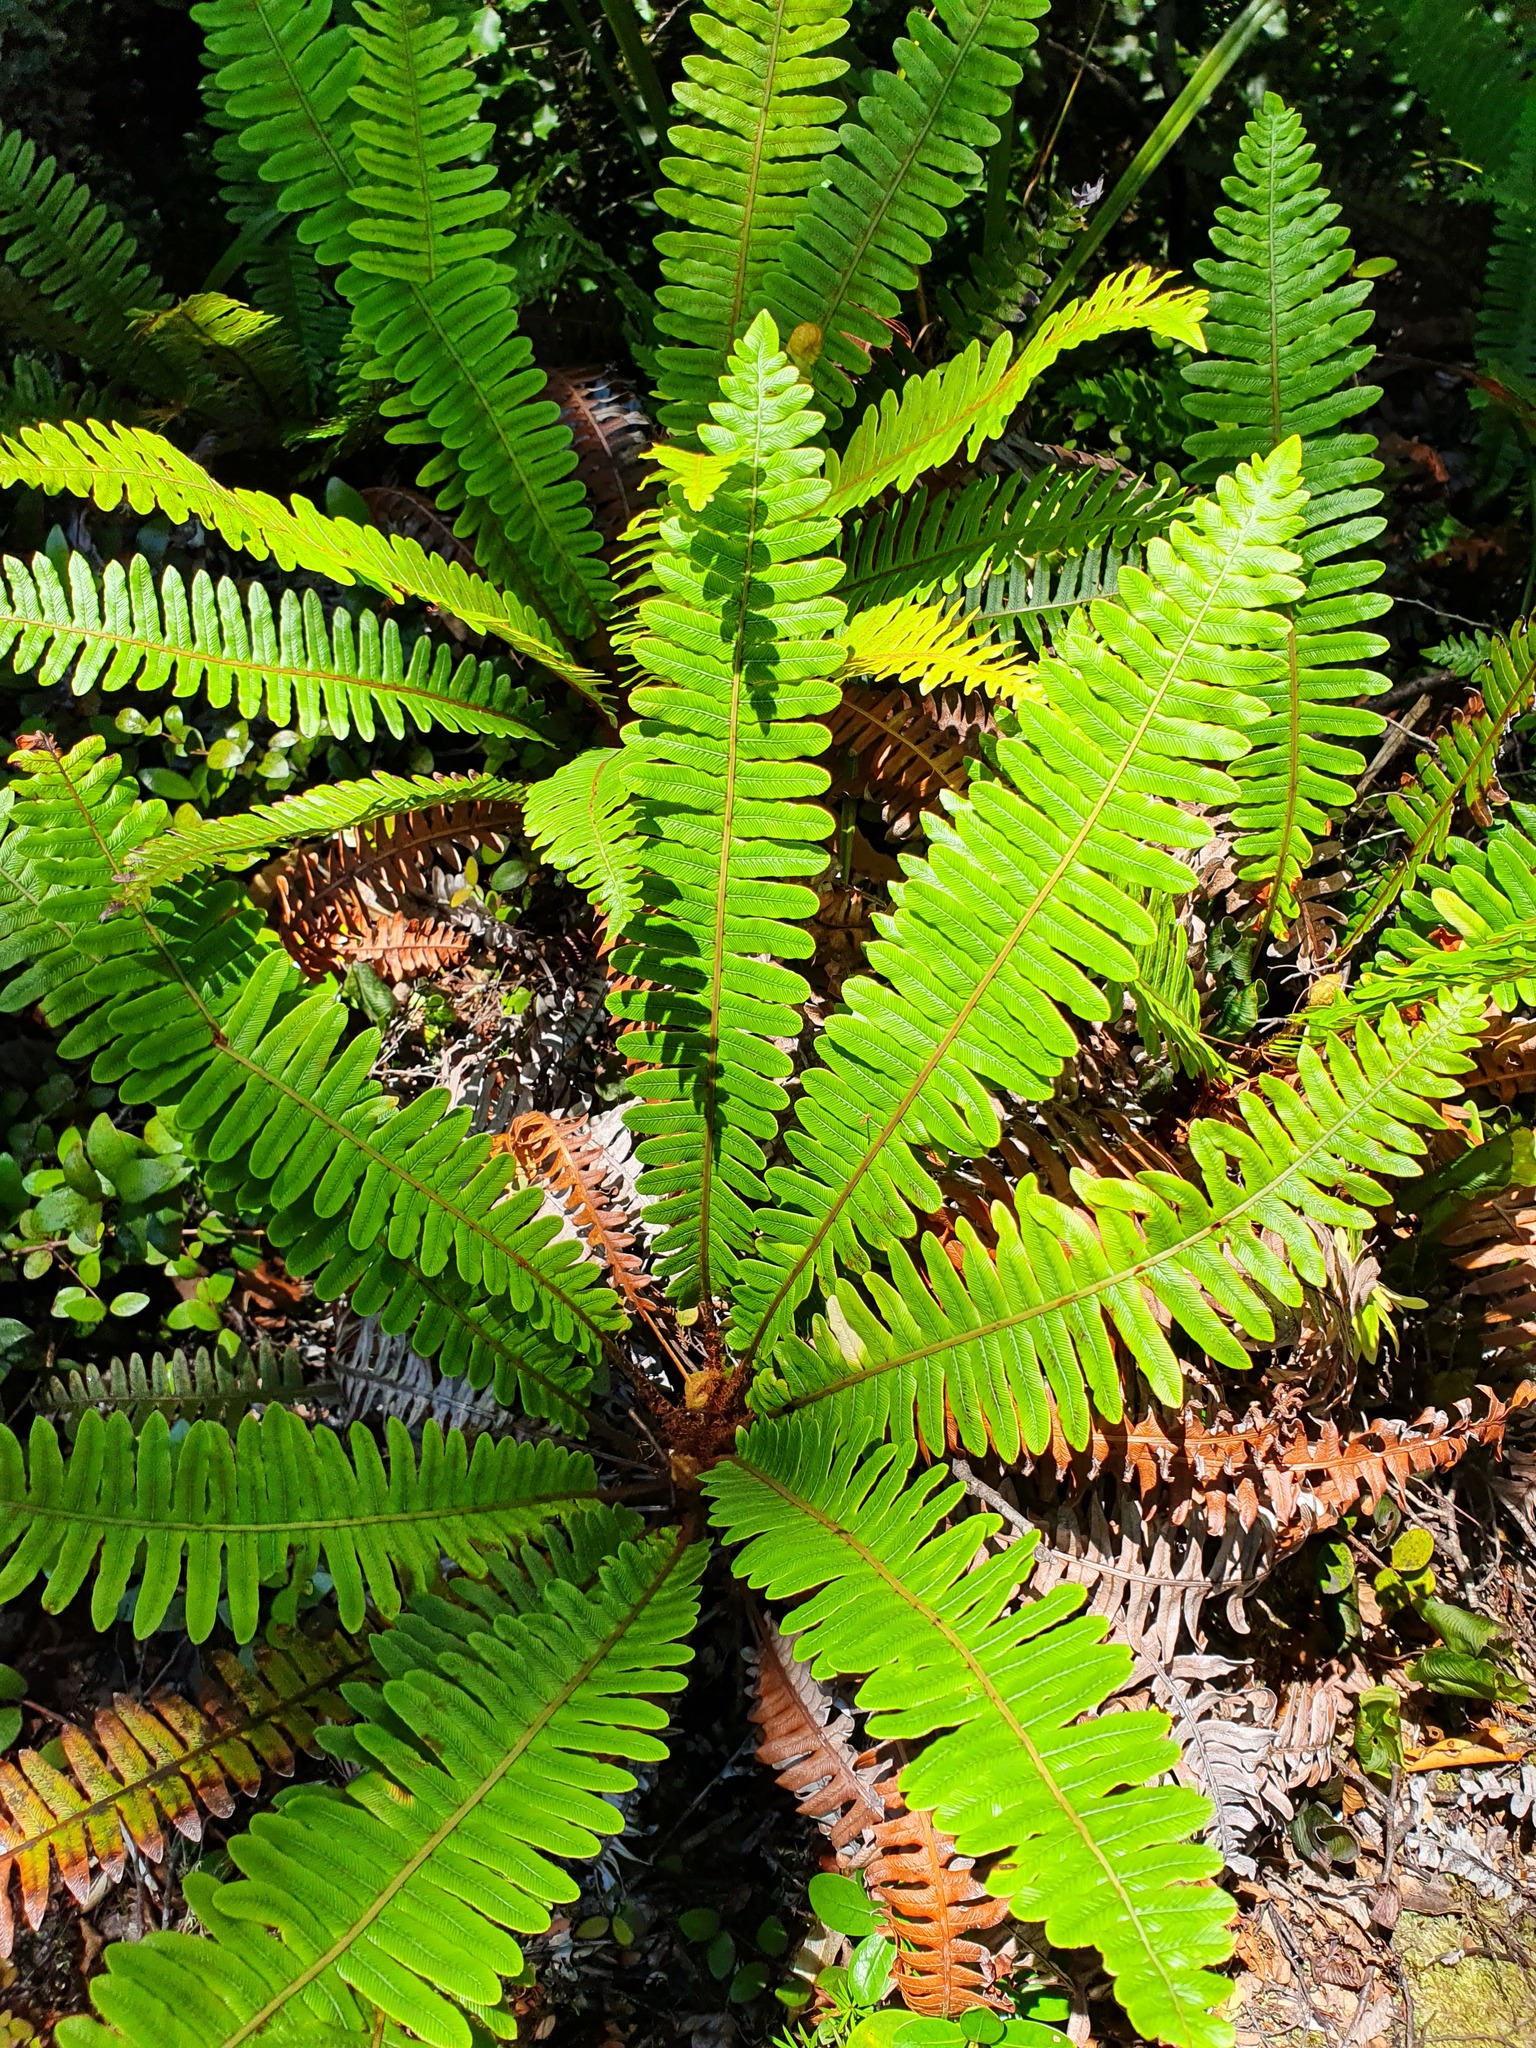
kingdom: Plantae
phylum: Tracheophyta
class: Polypodiopsida
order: Polypodiales
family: Blechnaceae
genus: Lomaria
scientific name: Lomaria discolor
